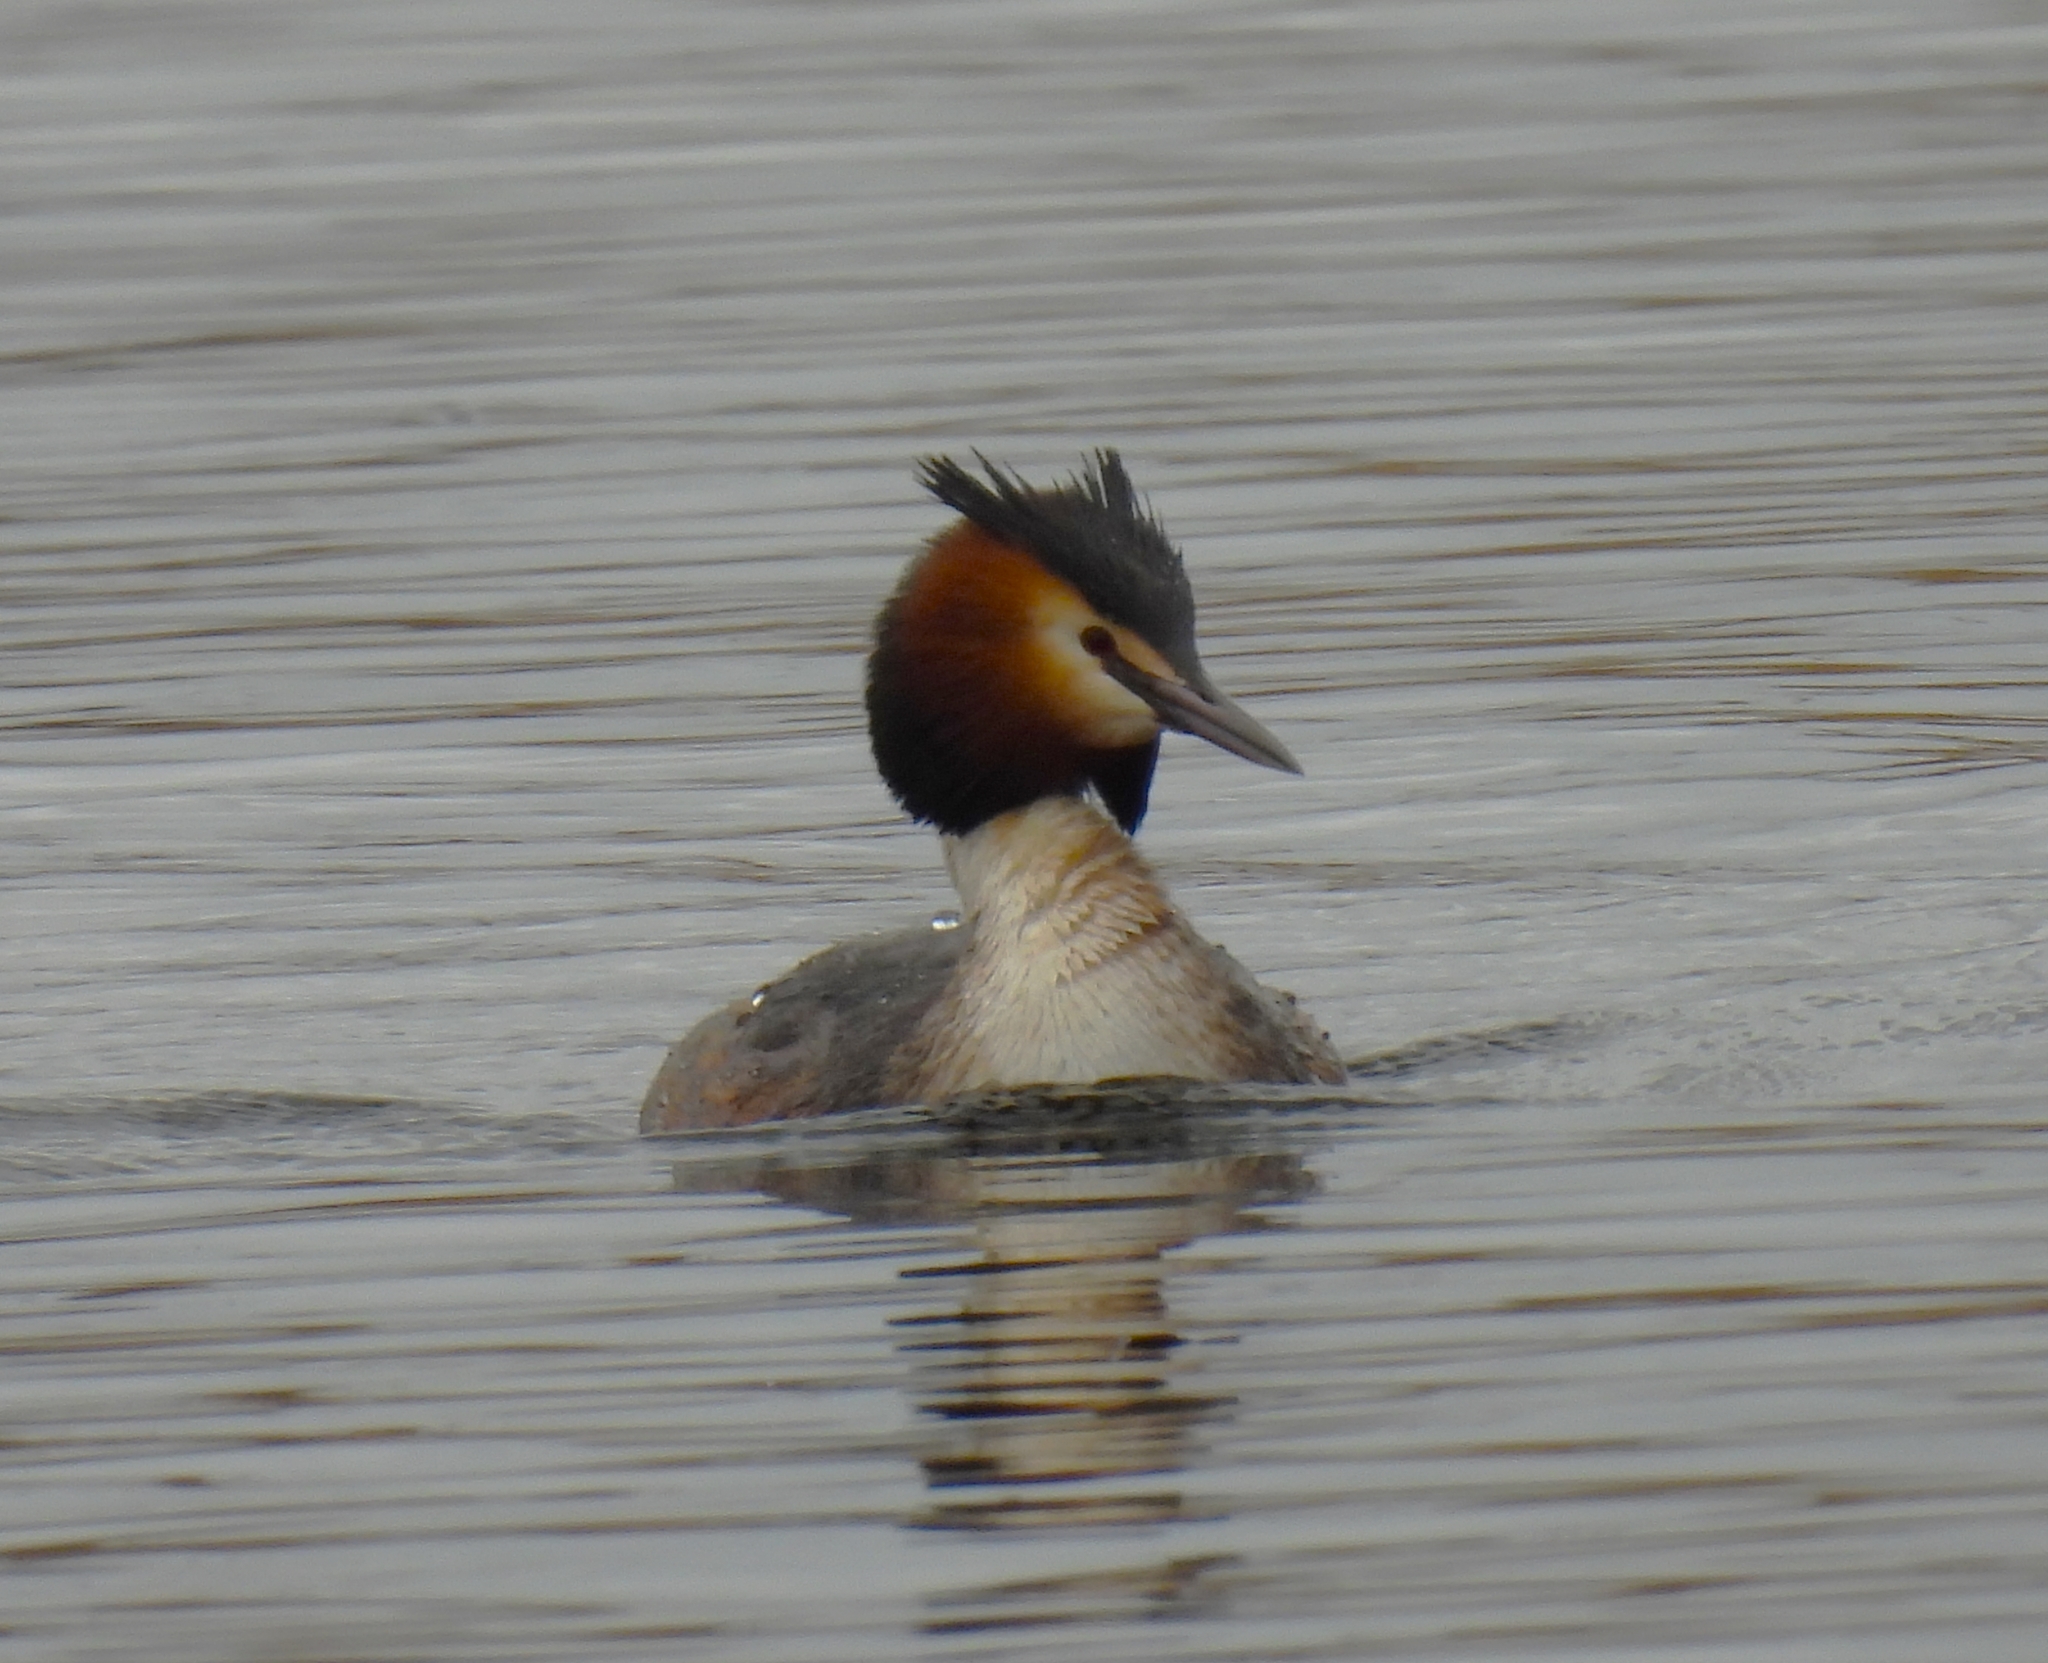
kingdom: Animalia
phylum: Chordata
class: Aves
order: Podicipediformes
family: Podicipedidae
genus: Podiceps
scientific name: Podiceps cristatus
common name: Great crested grebe
